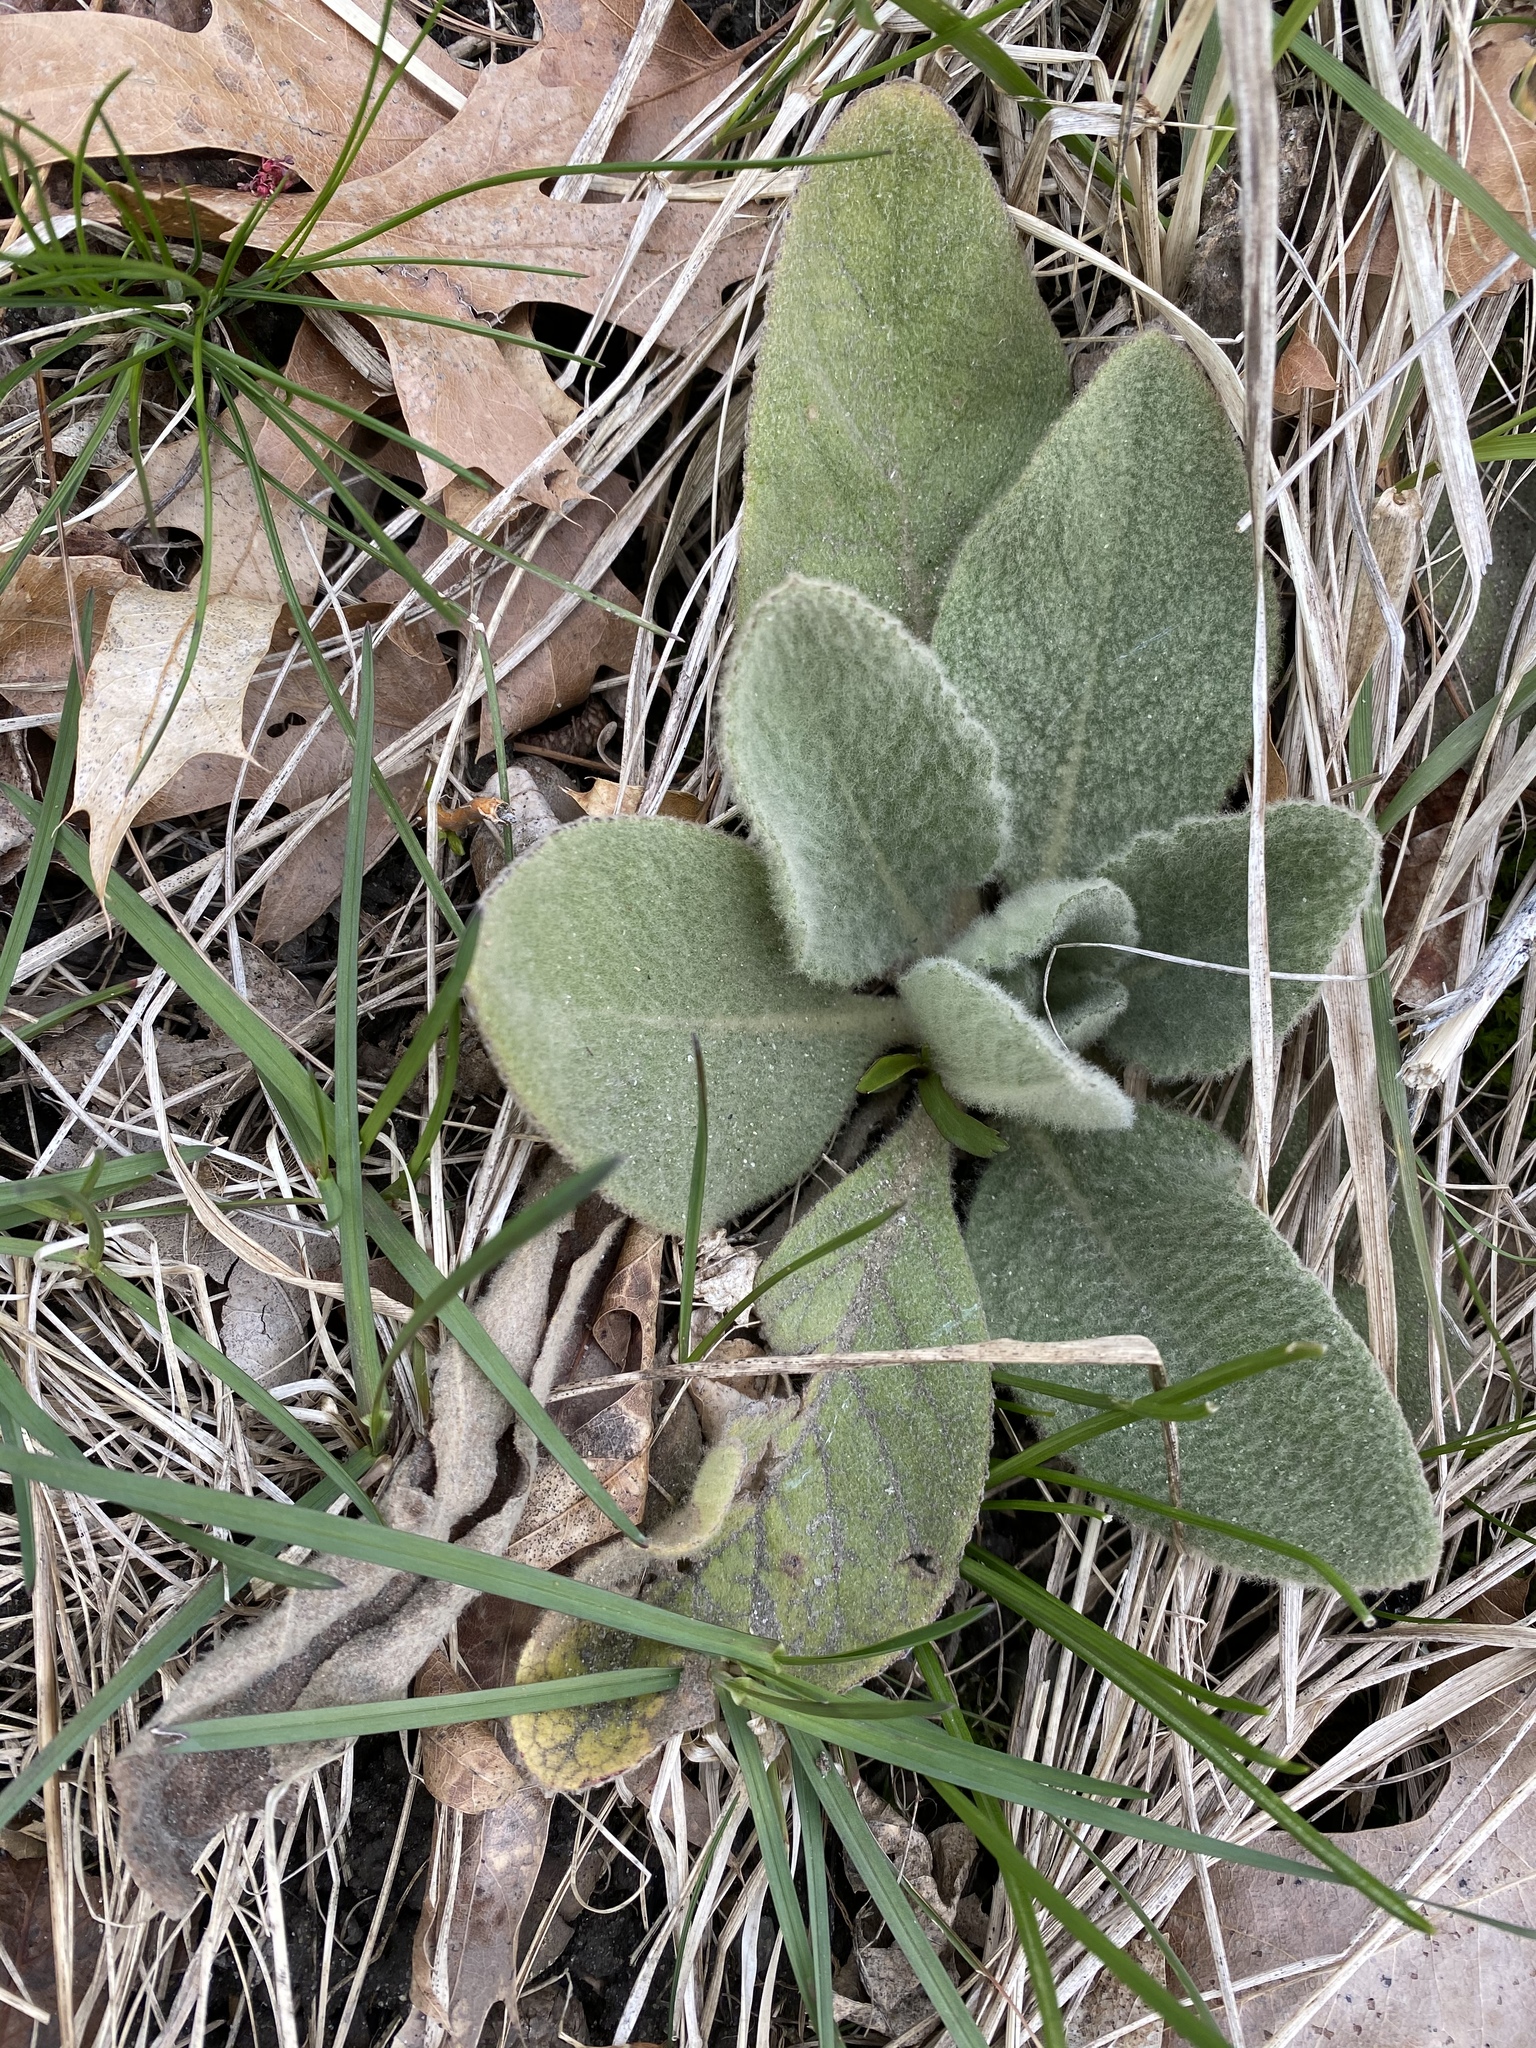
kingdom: Plantae
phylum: Tracheophyta
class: Magnoliopsida
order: Lamiales
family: Scrophulariaceae
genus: Verbascum
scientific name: Verbascum thapsus
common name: Common mullein
